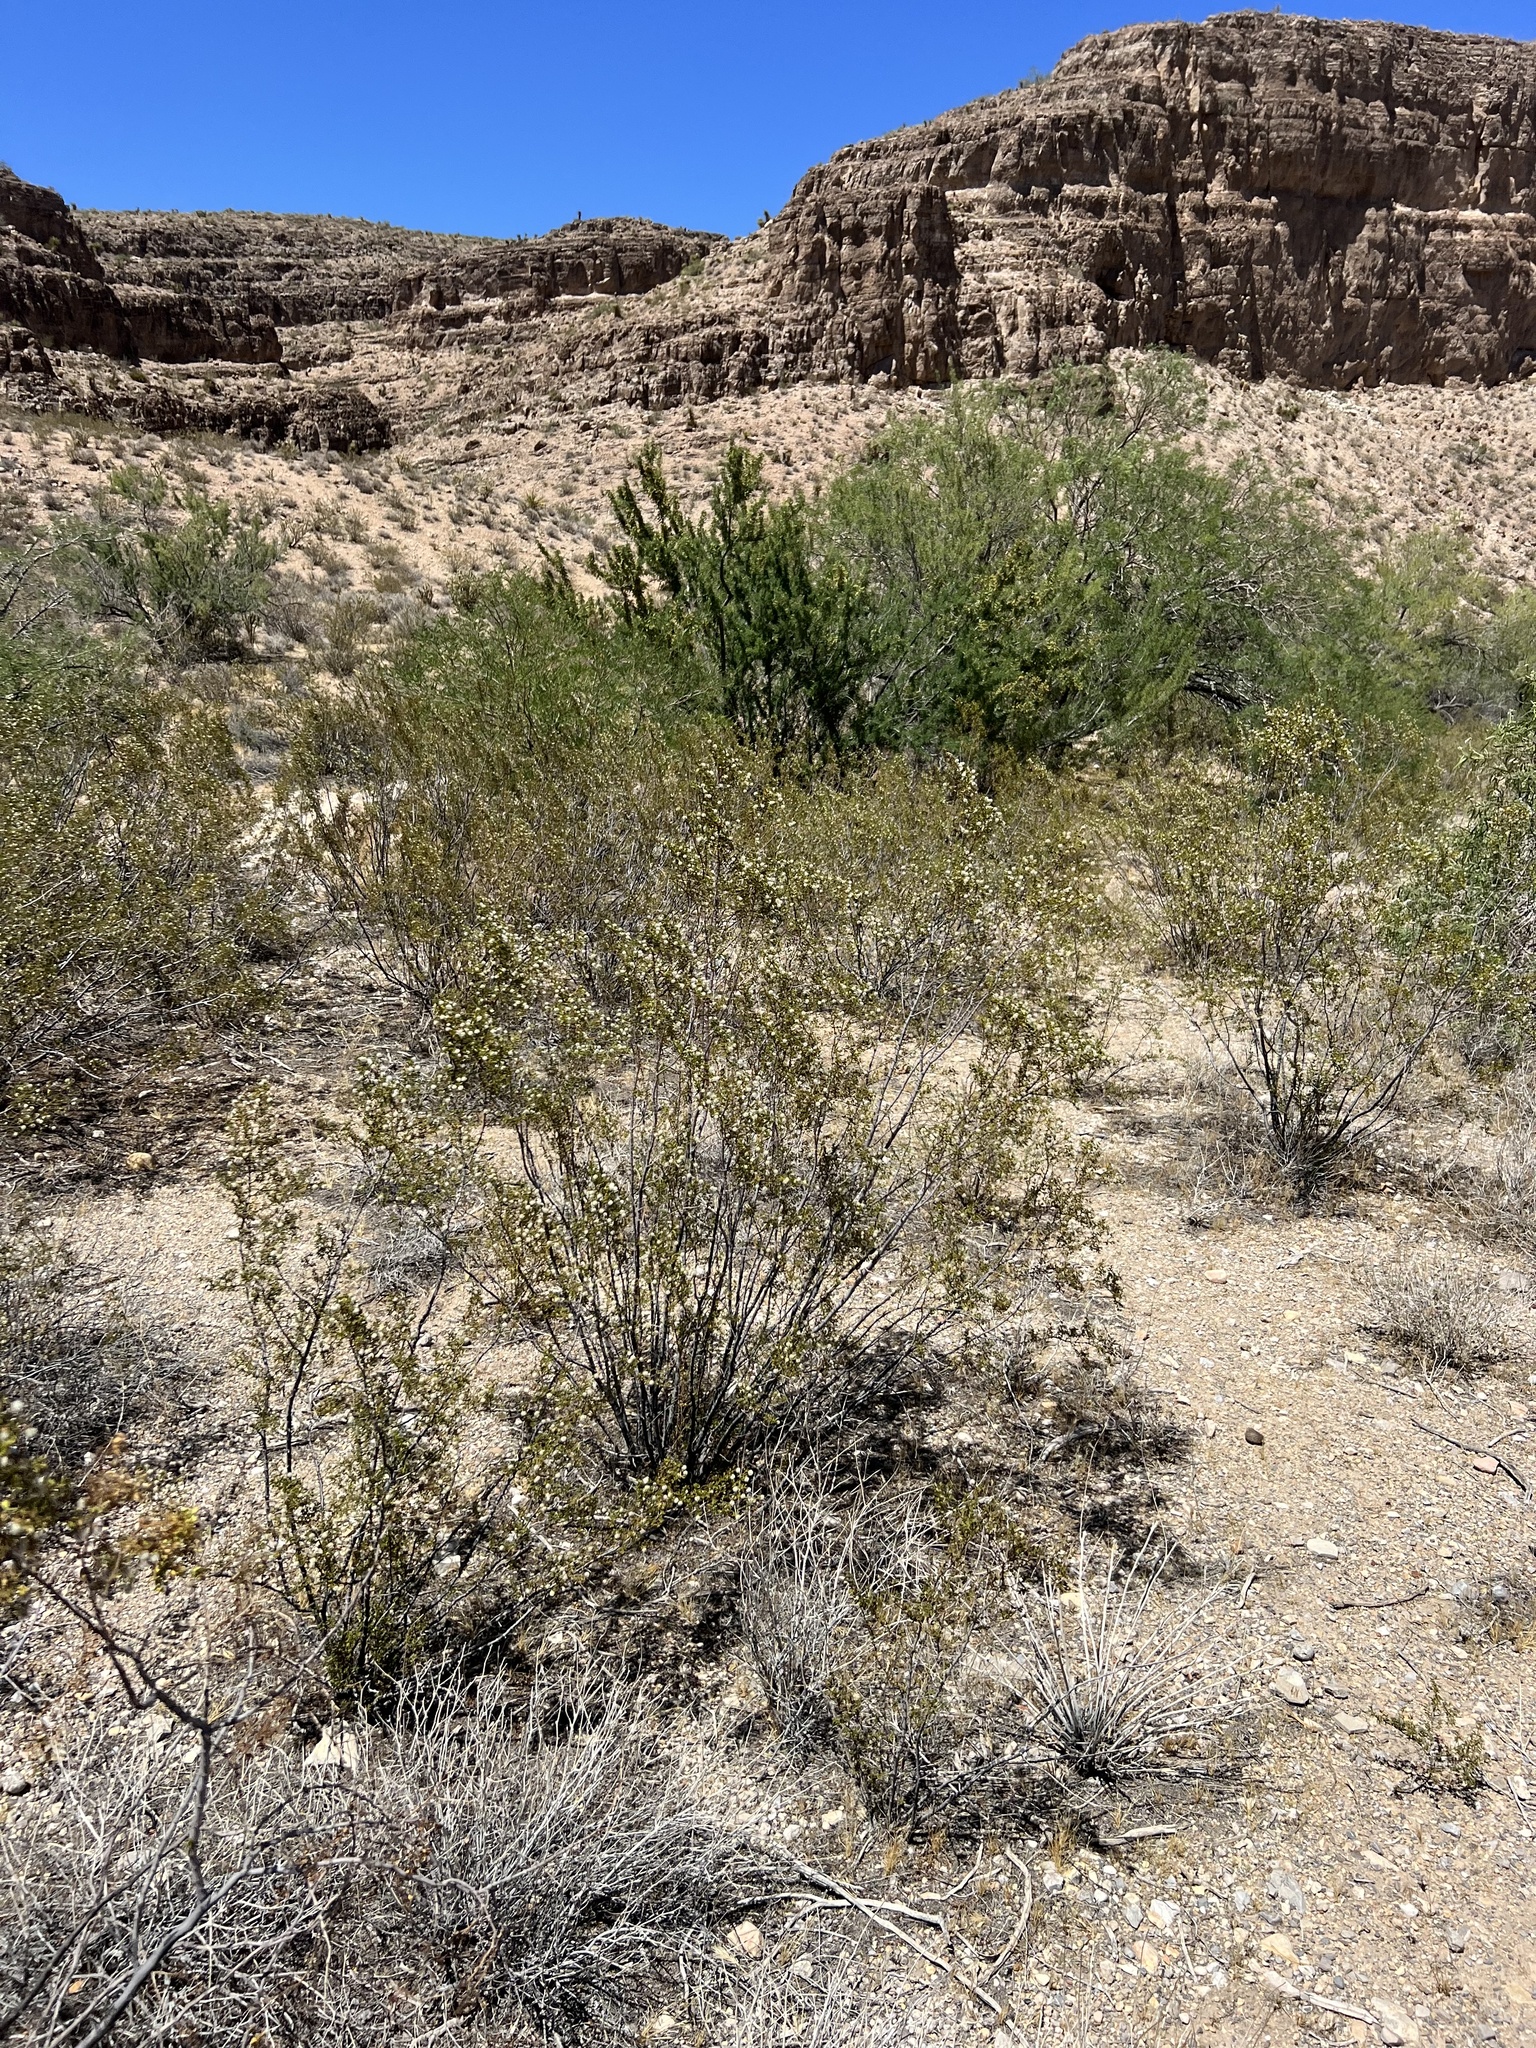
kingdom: Plantae
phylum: Tracheophyta
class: Magnoliopsida
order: Zygophyllales
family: Zygophyllaceae
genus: Larrea
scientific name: Larrea tridentata
